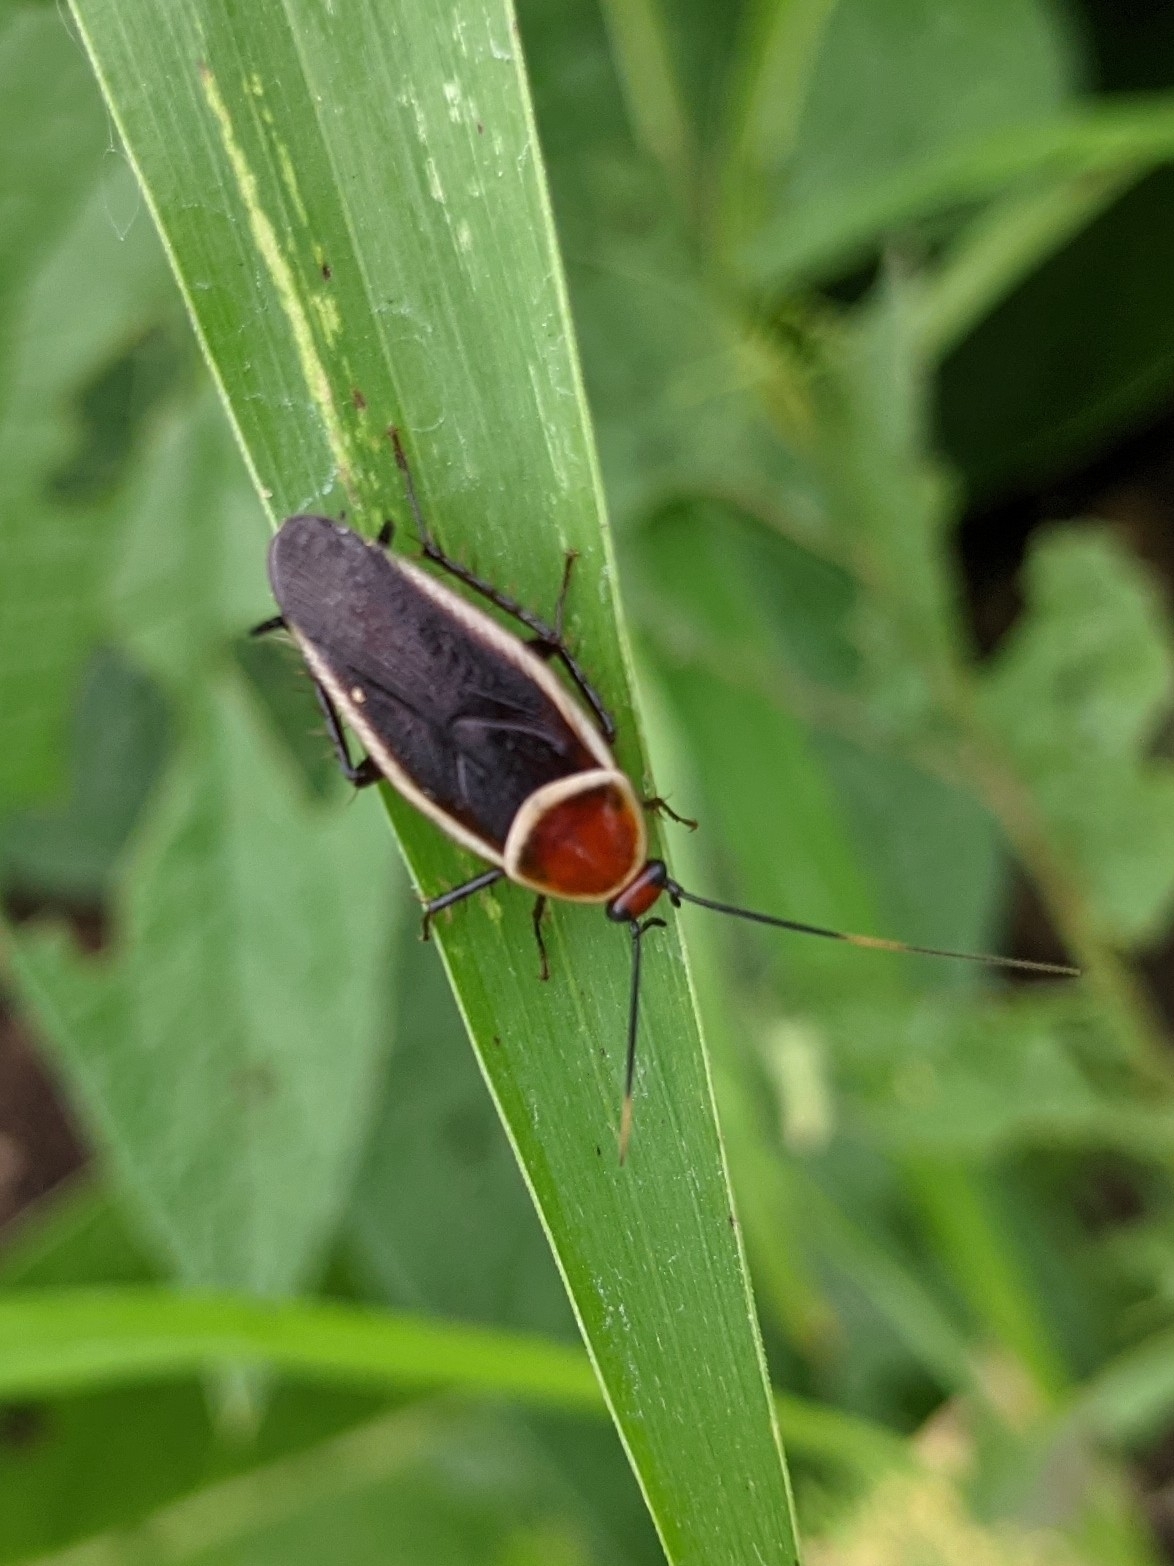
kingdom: Animalia
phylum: Arthropoda
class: Insecta
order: Blattodea
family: Ectobiidae
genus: Pseudomops
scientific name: Pseudomops septentrionalis
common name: Pale-bordered field cockroach
